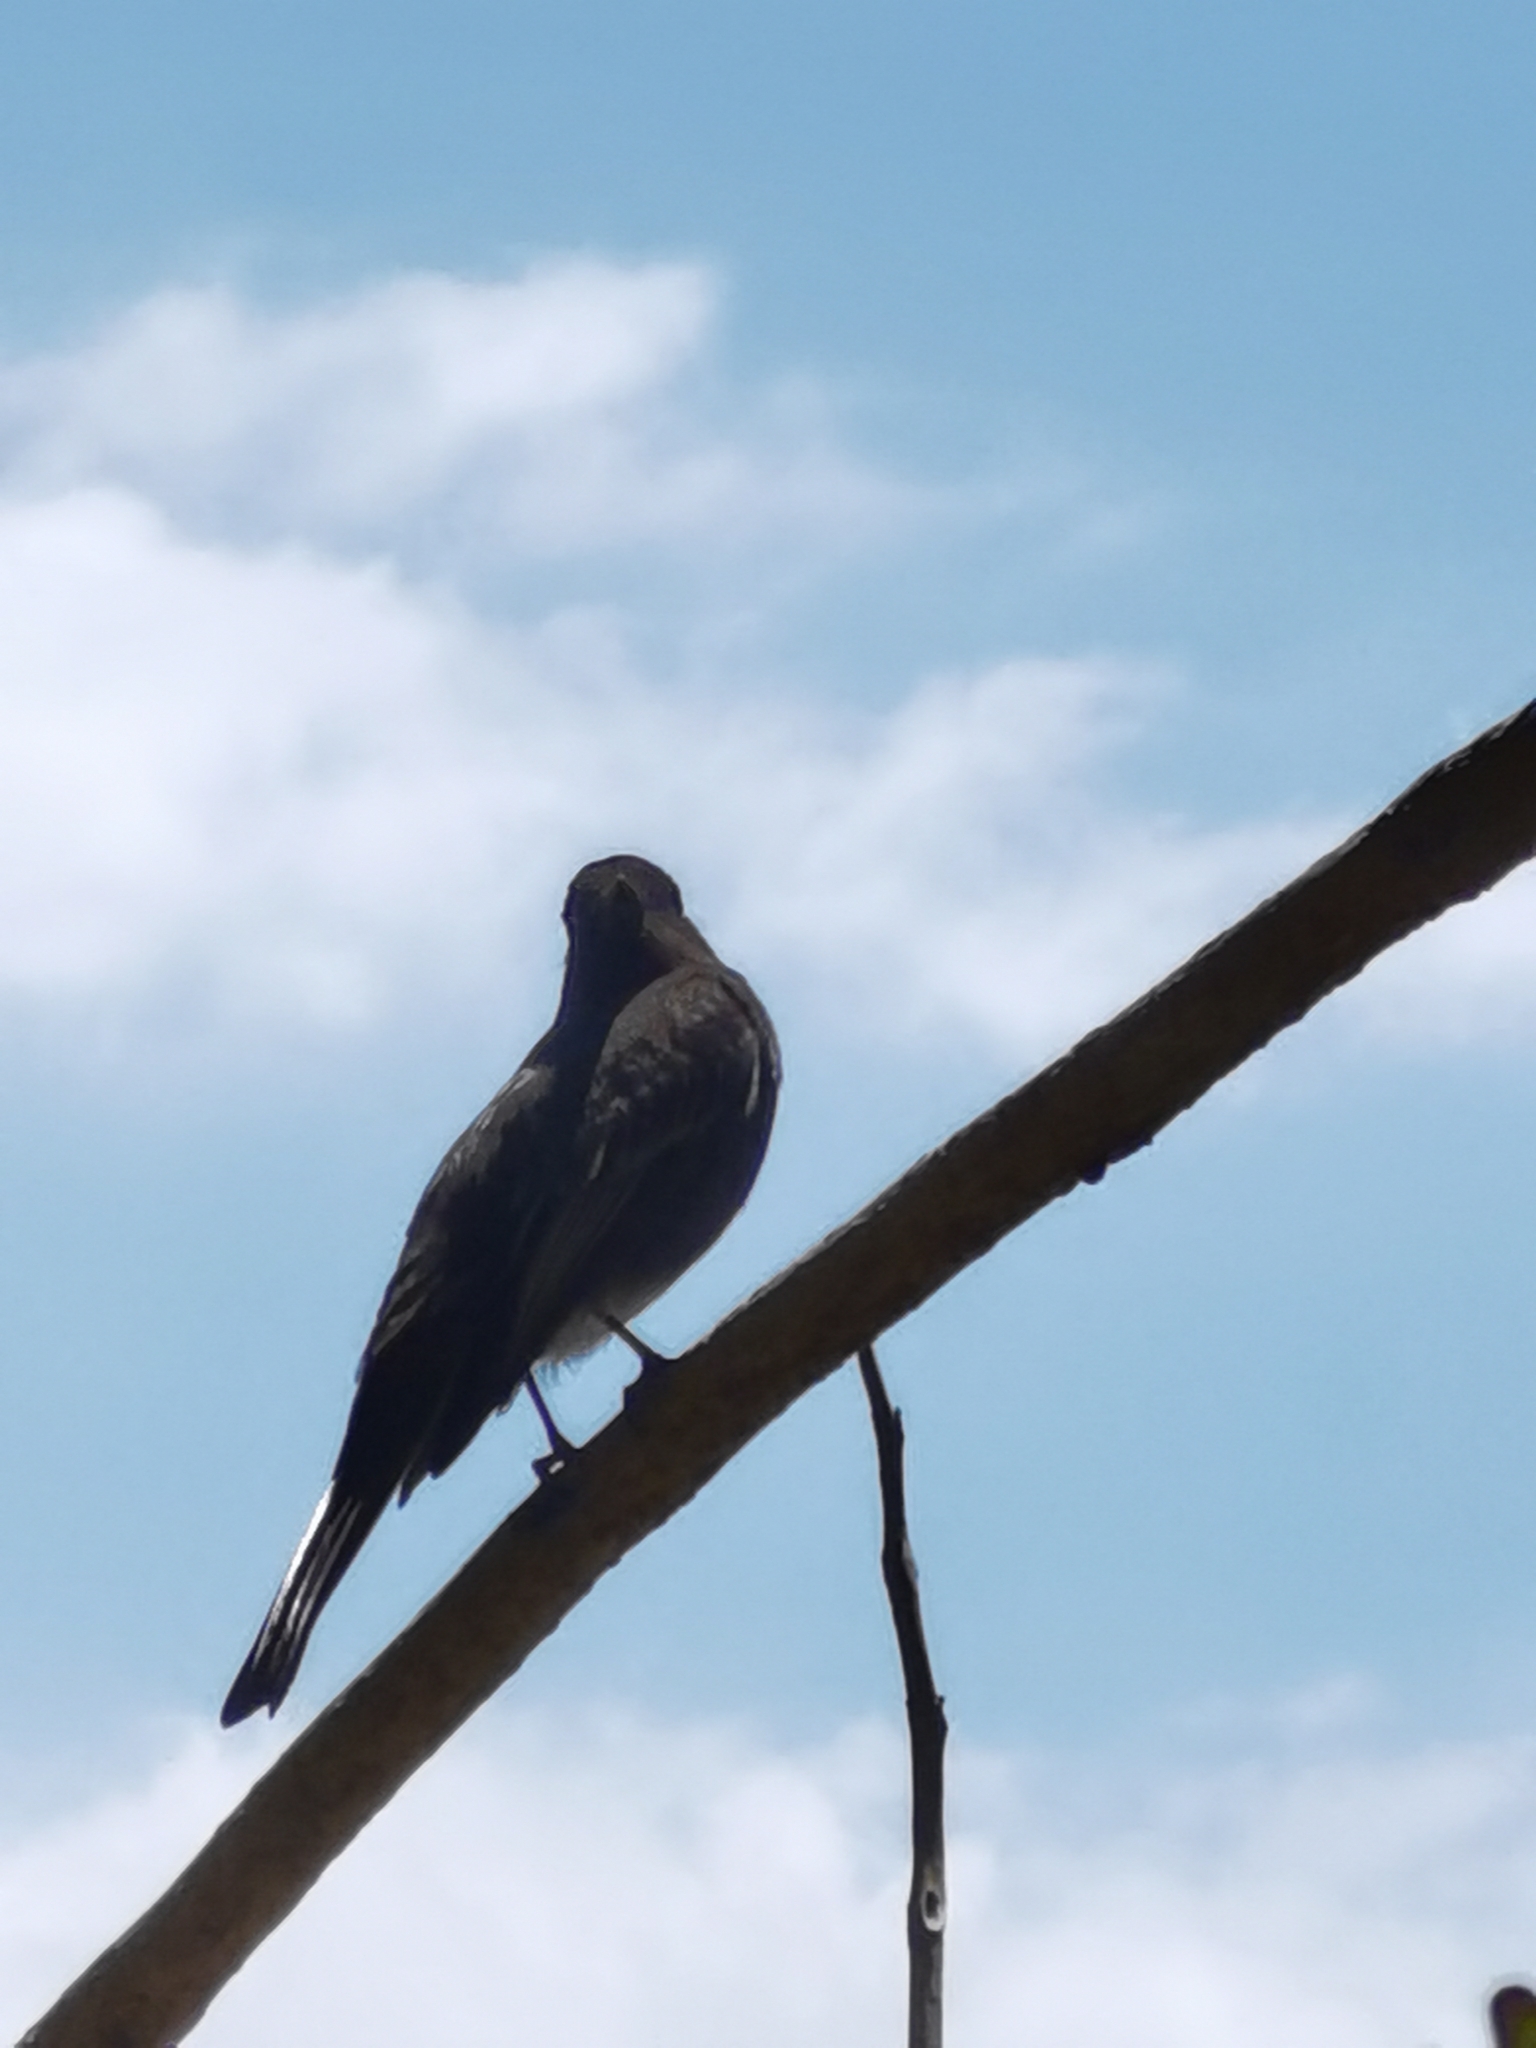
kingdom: Animalia
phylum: Chordata
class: Aves
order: Passeriformes
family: Tyrannidae
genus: Sayornis
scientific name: Sayornis nigricans
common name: Black phoebe
